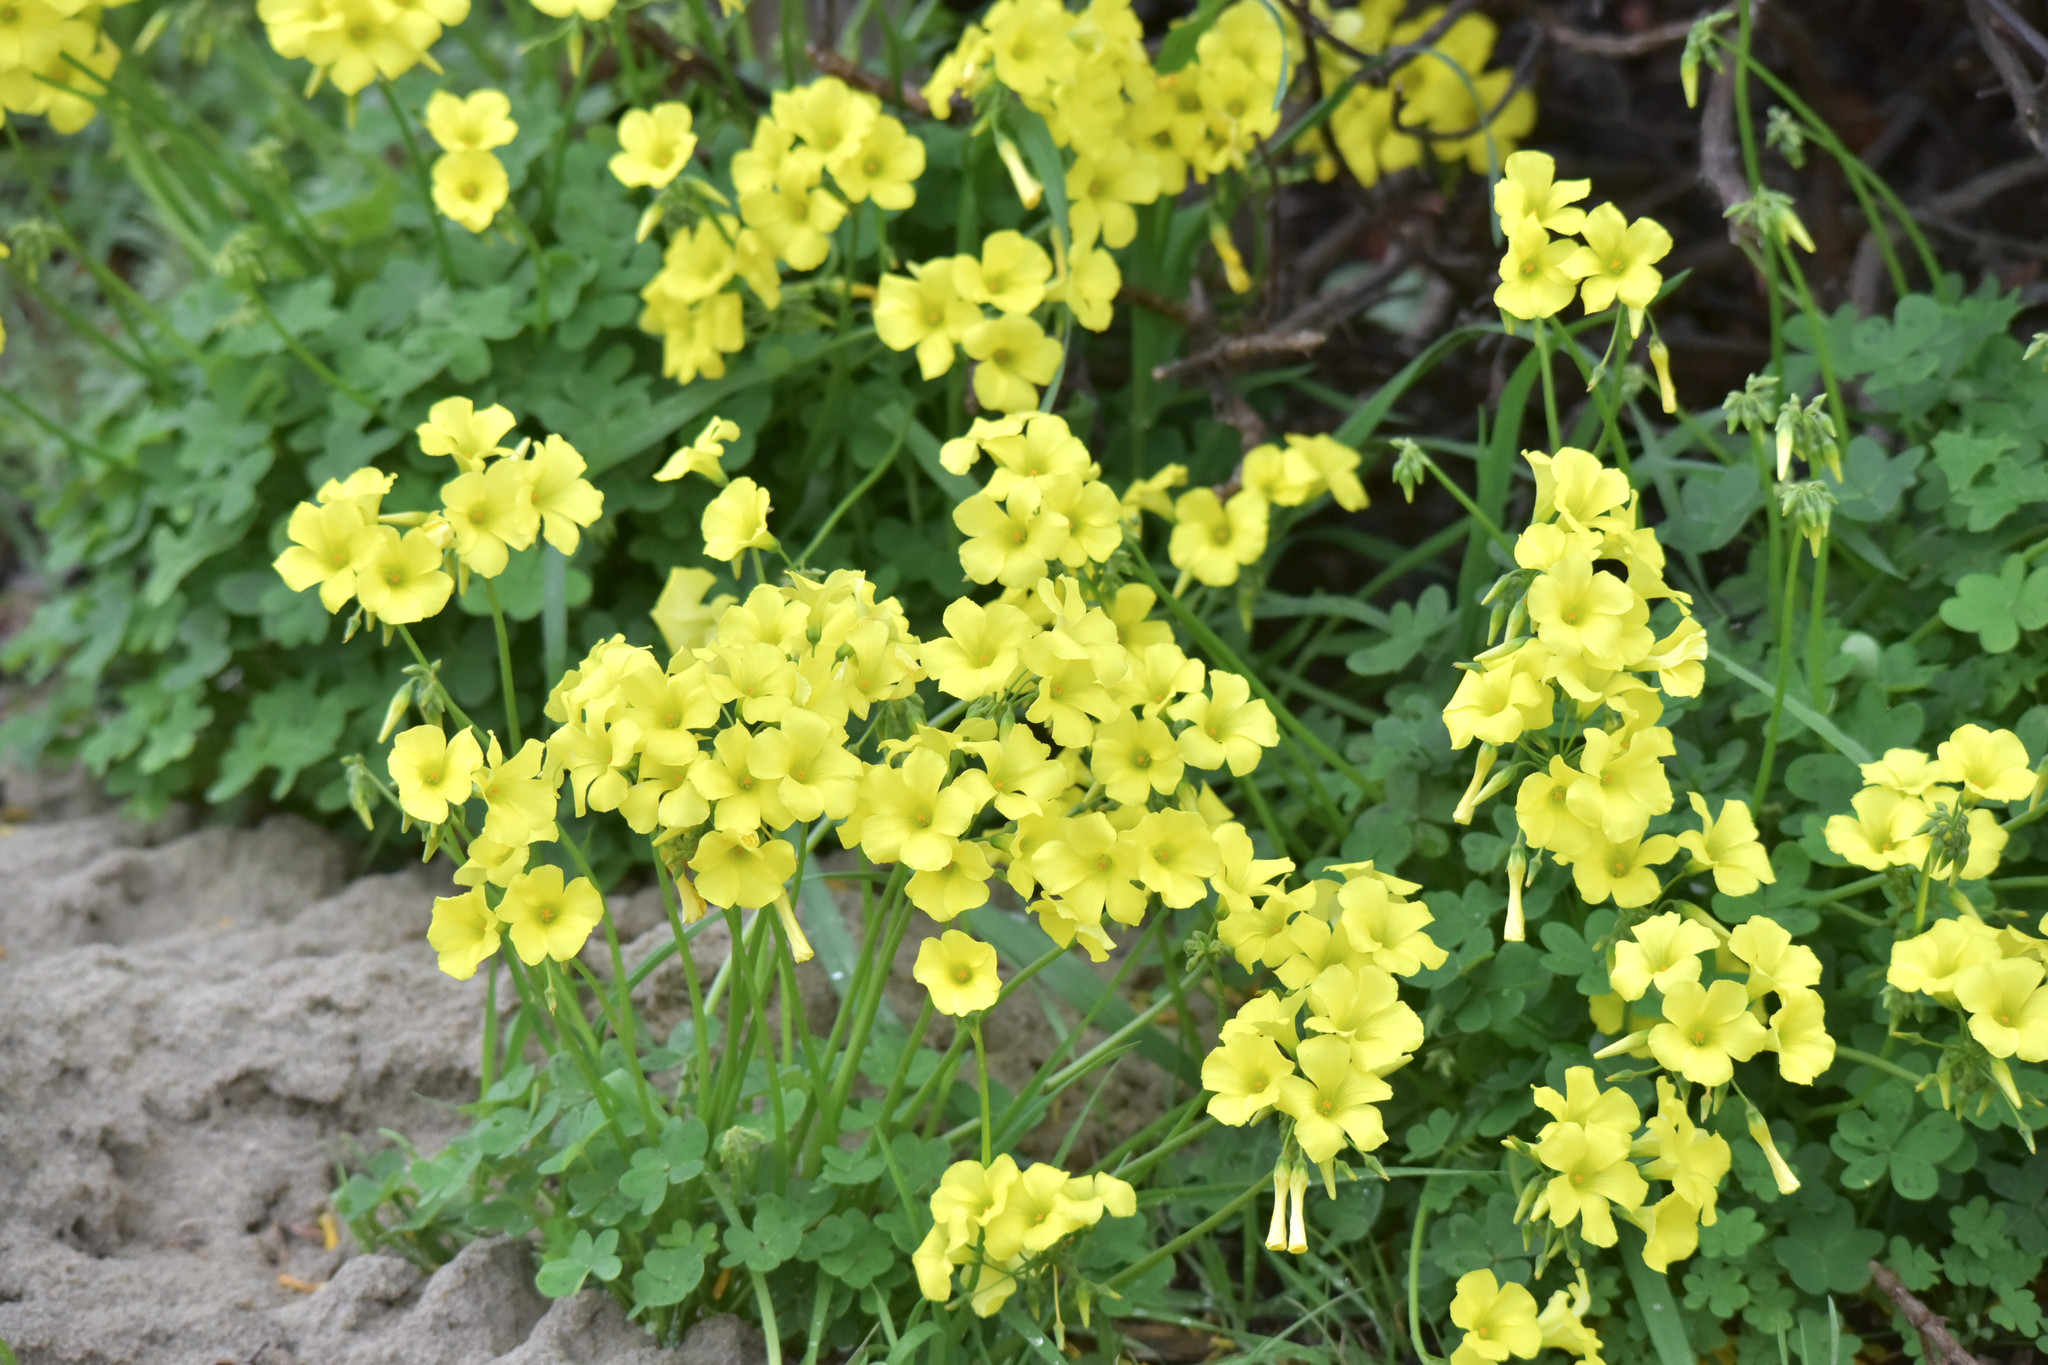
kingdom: Plantae
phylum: Tracheophyta
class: Magnoliopsida
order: Oxalidales
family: Oxalidaceae
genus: Oxalis
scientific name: Oxalis pes-caprae
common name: Bermuda-buttercup
